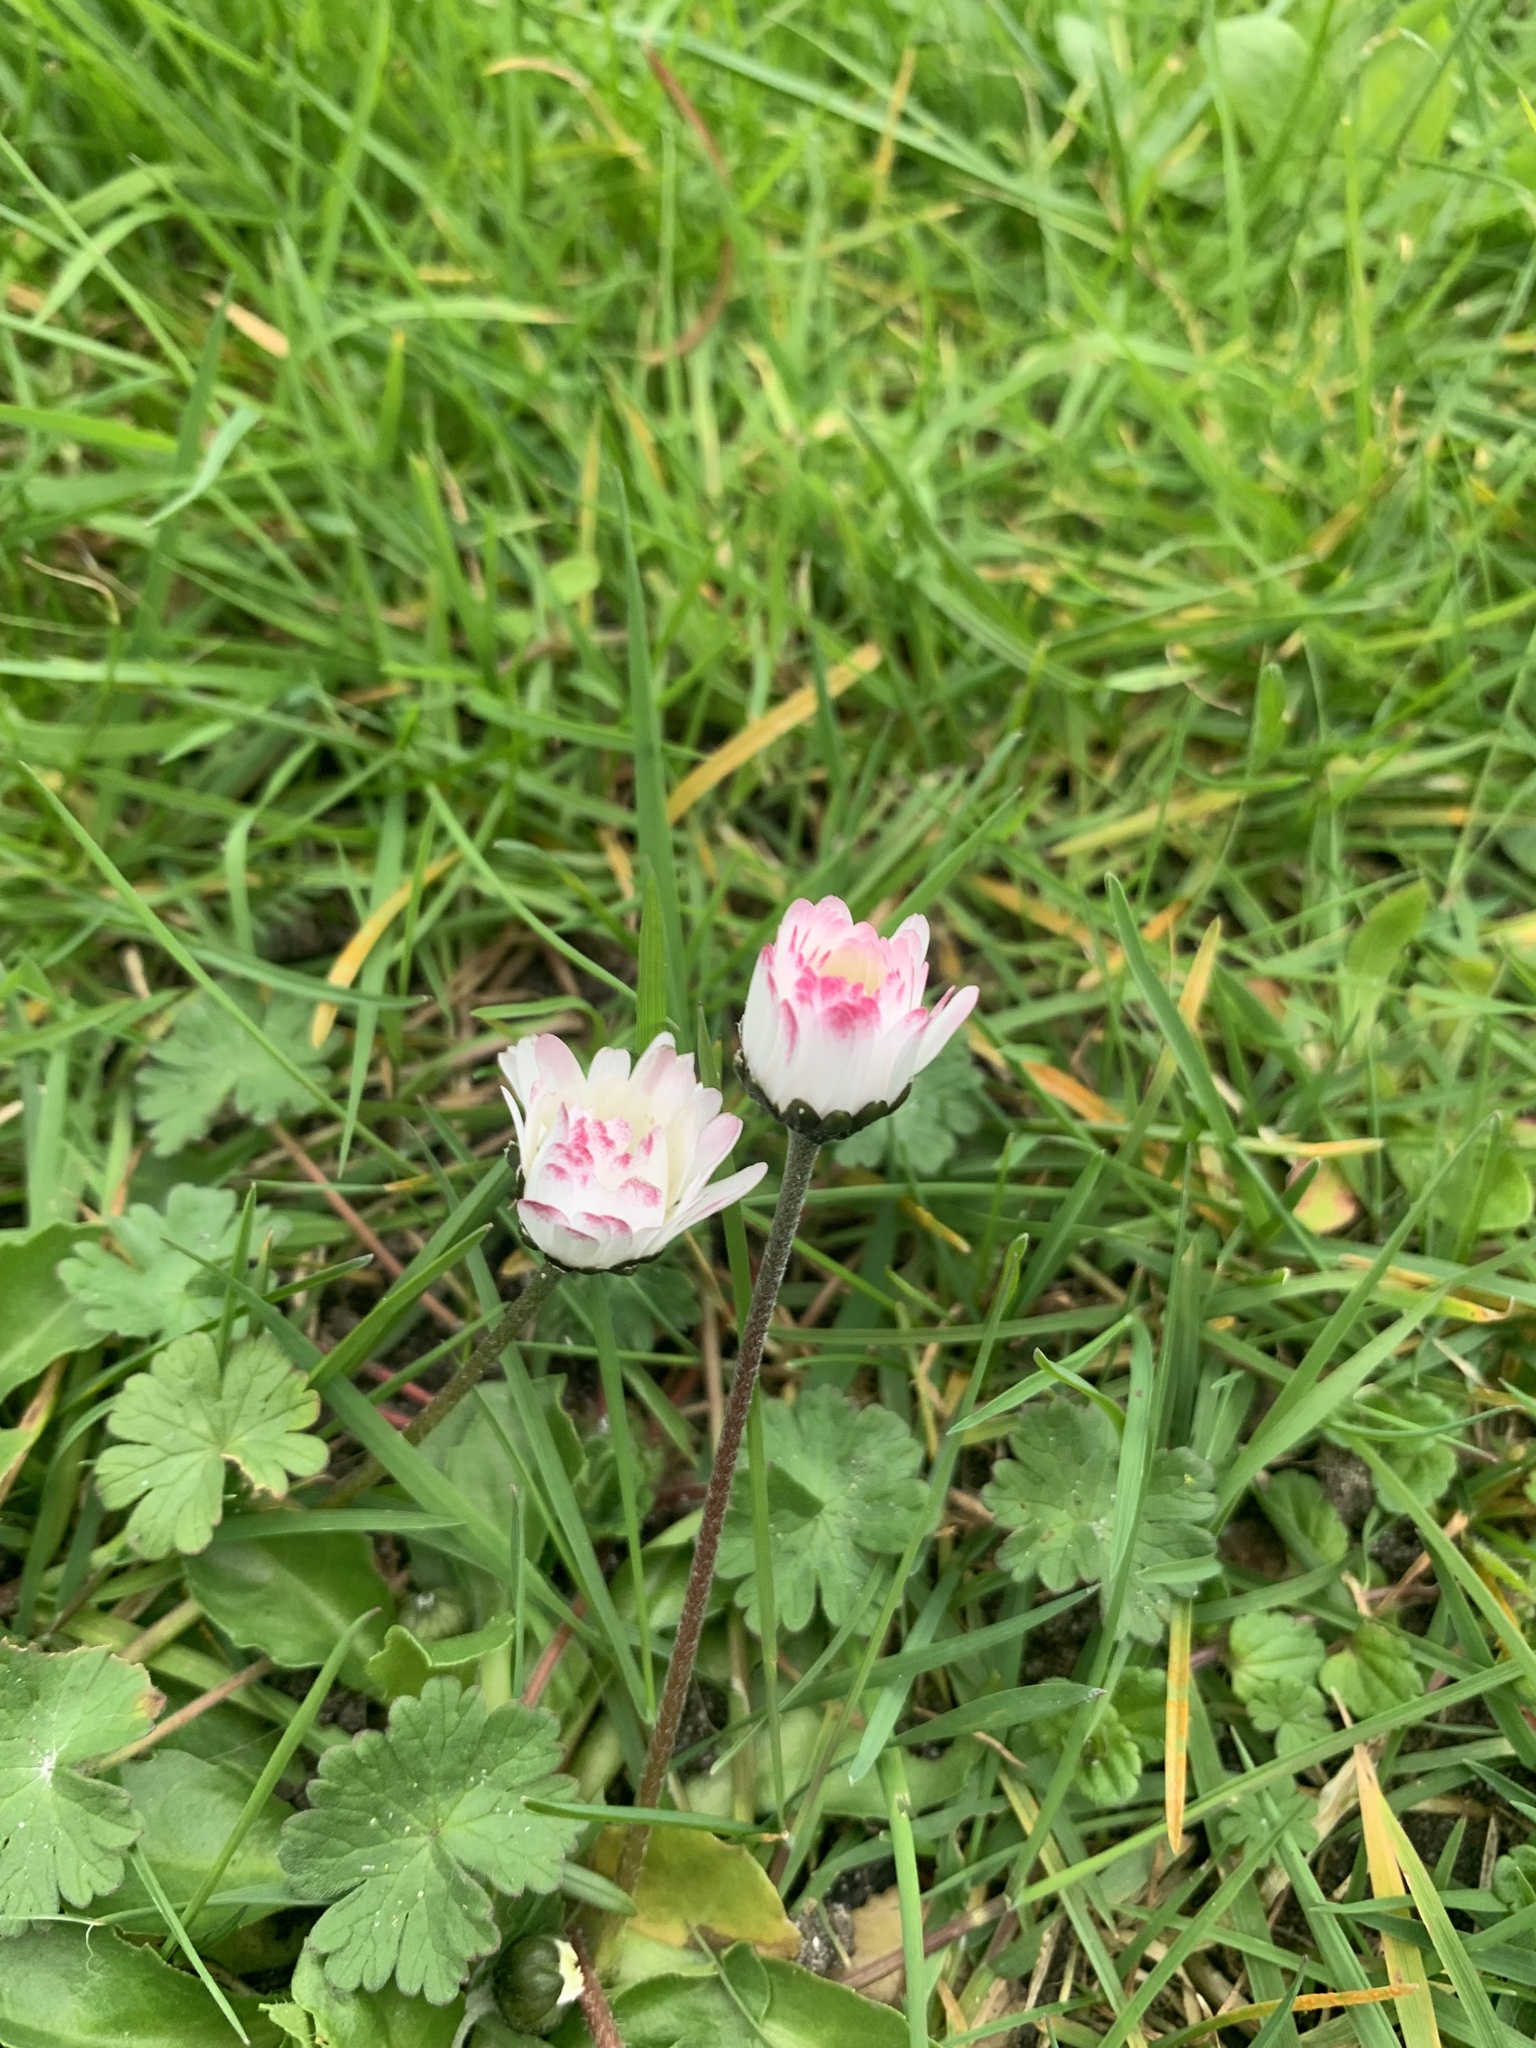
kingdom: Plantae
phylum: Tracheophyta
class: Magnoliopsida
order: Asterales
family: Asteraceae
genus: Bellis
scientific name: Bellis perennis
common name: Lawndaisy
